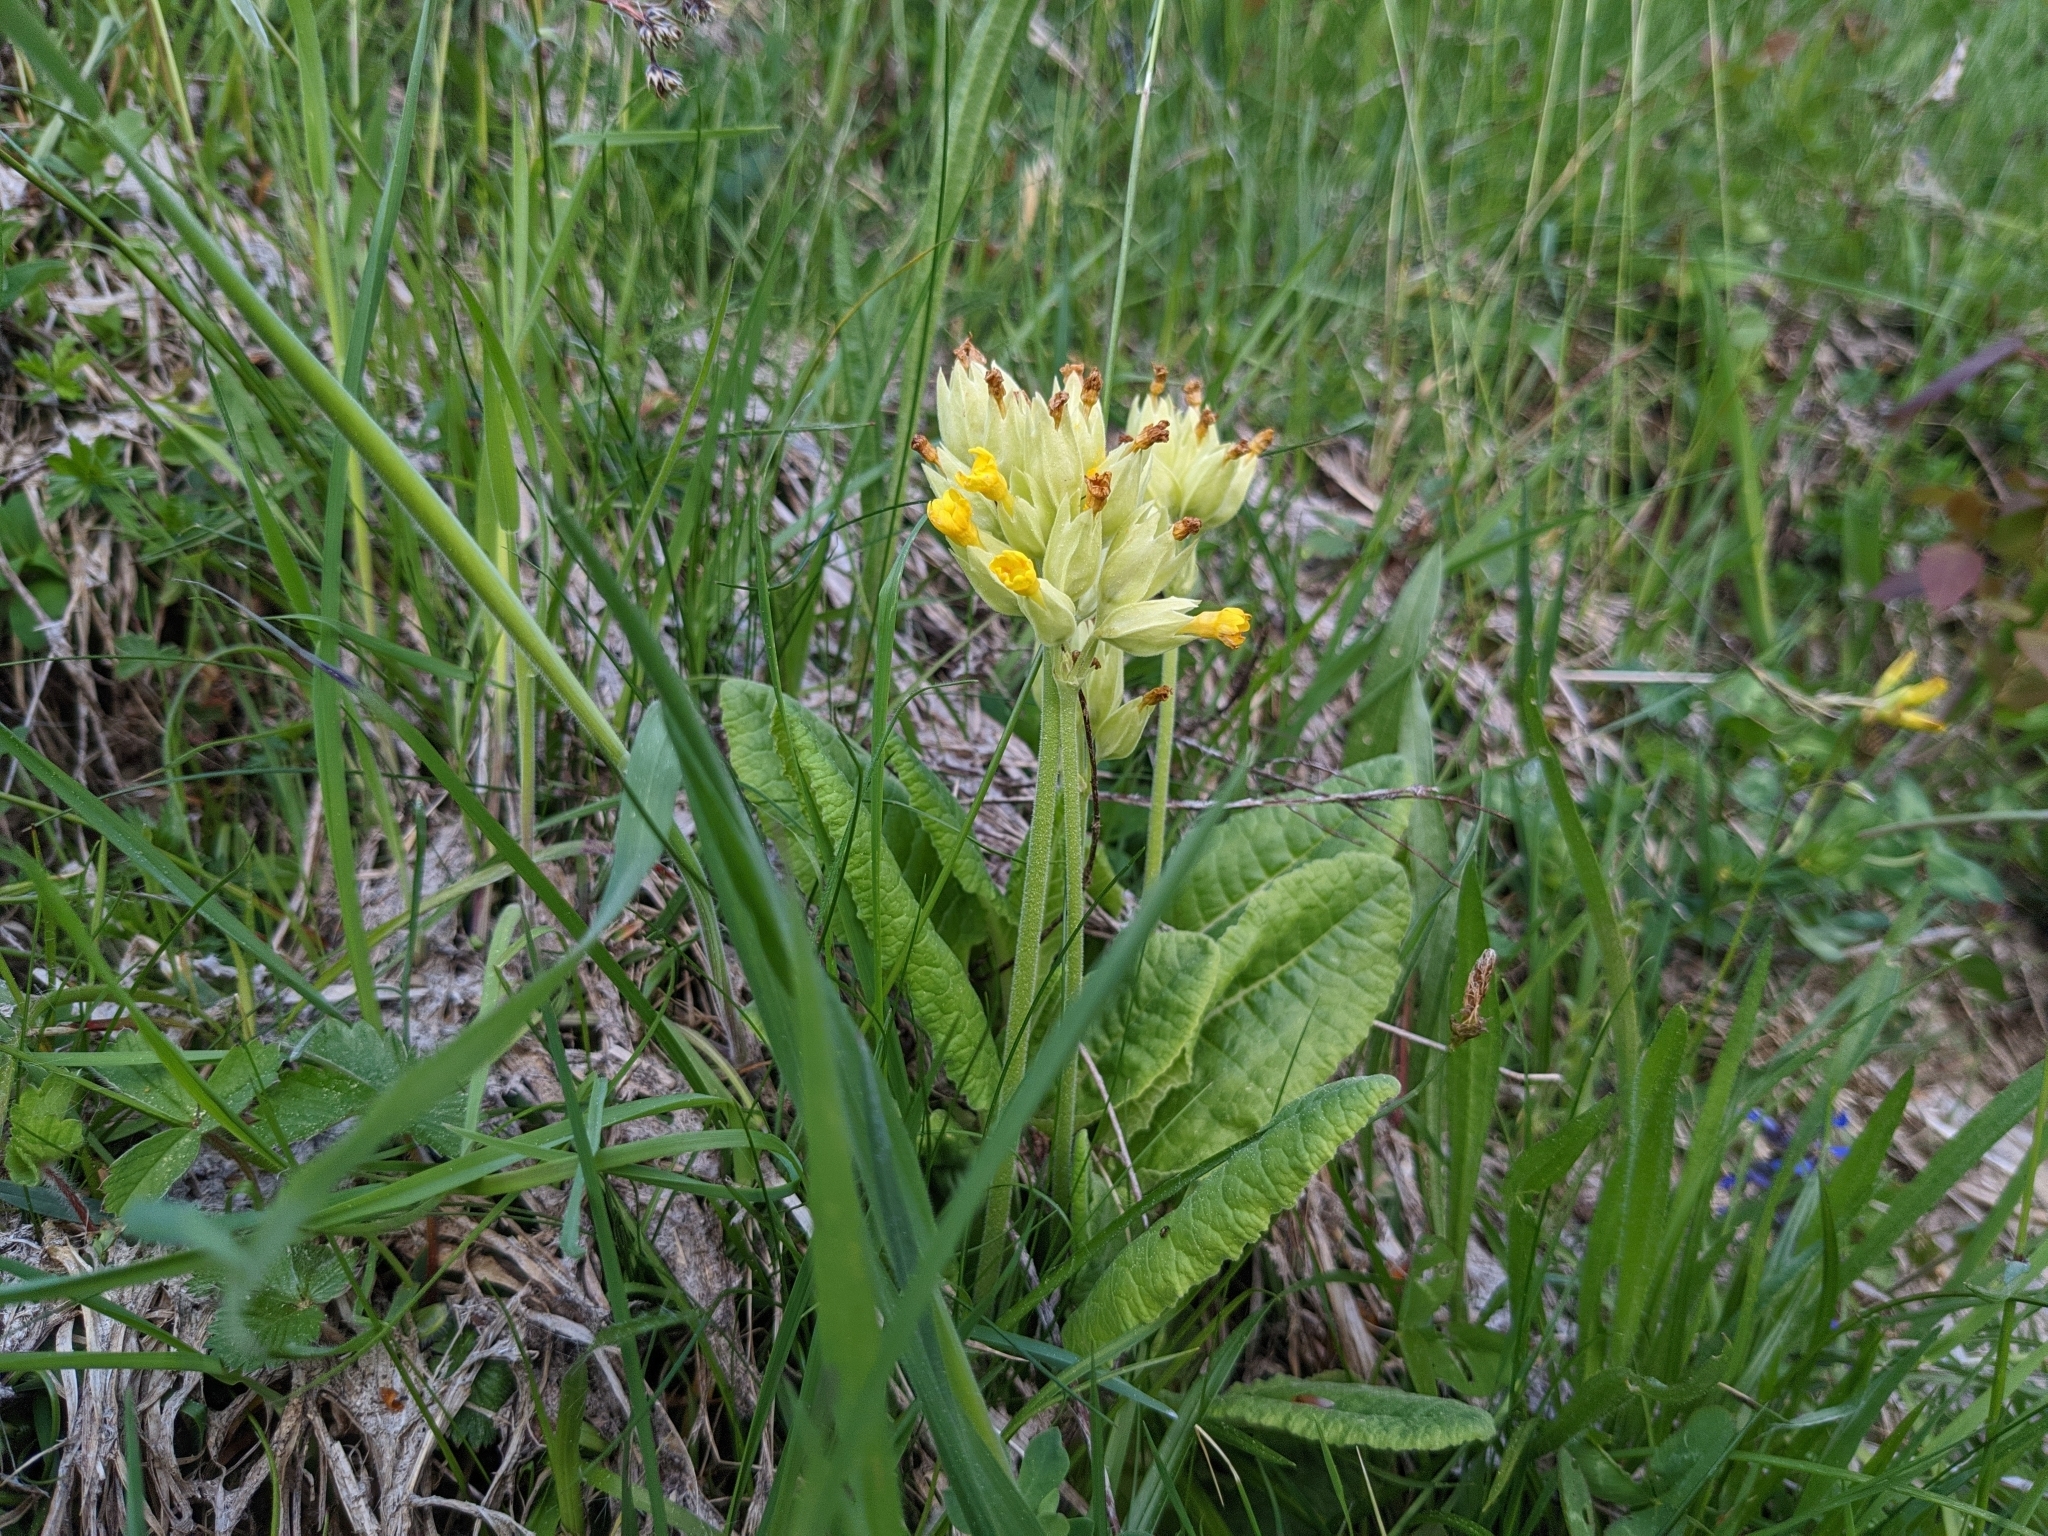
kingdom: Plantae
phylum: Tracheophyta
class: Magnoliopsida
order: Ericales
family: Primulaceae
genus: Primula
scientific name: Primula veris
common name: Cowslip
